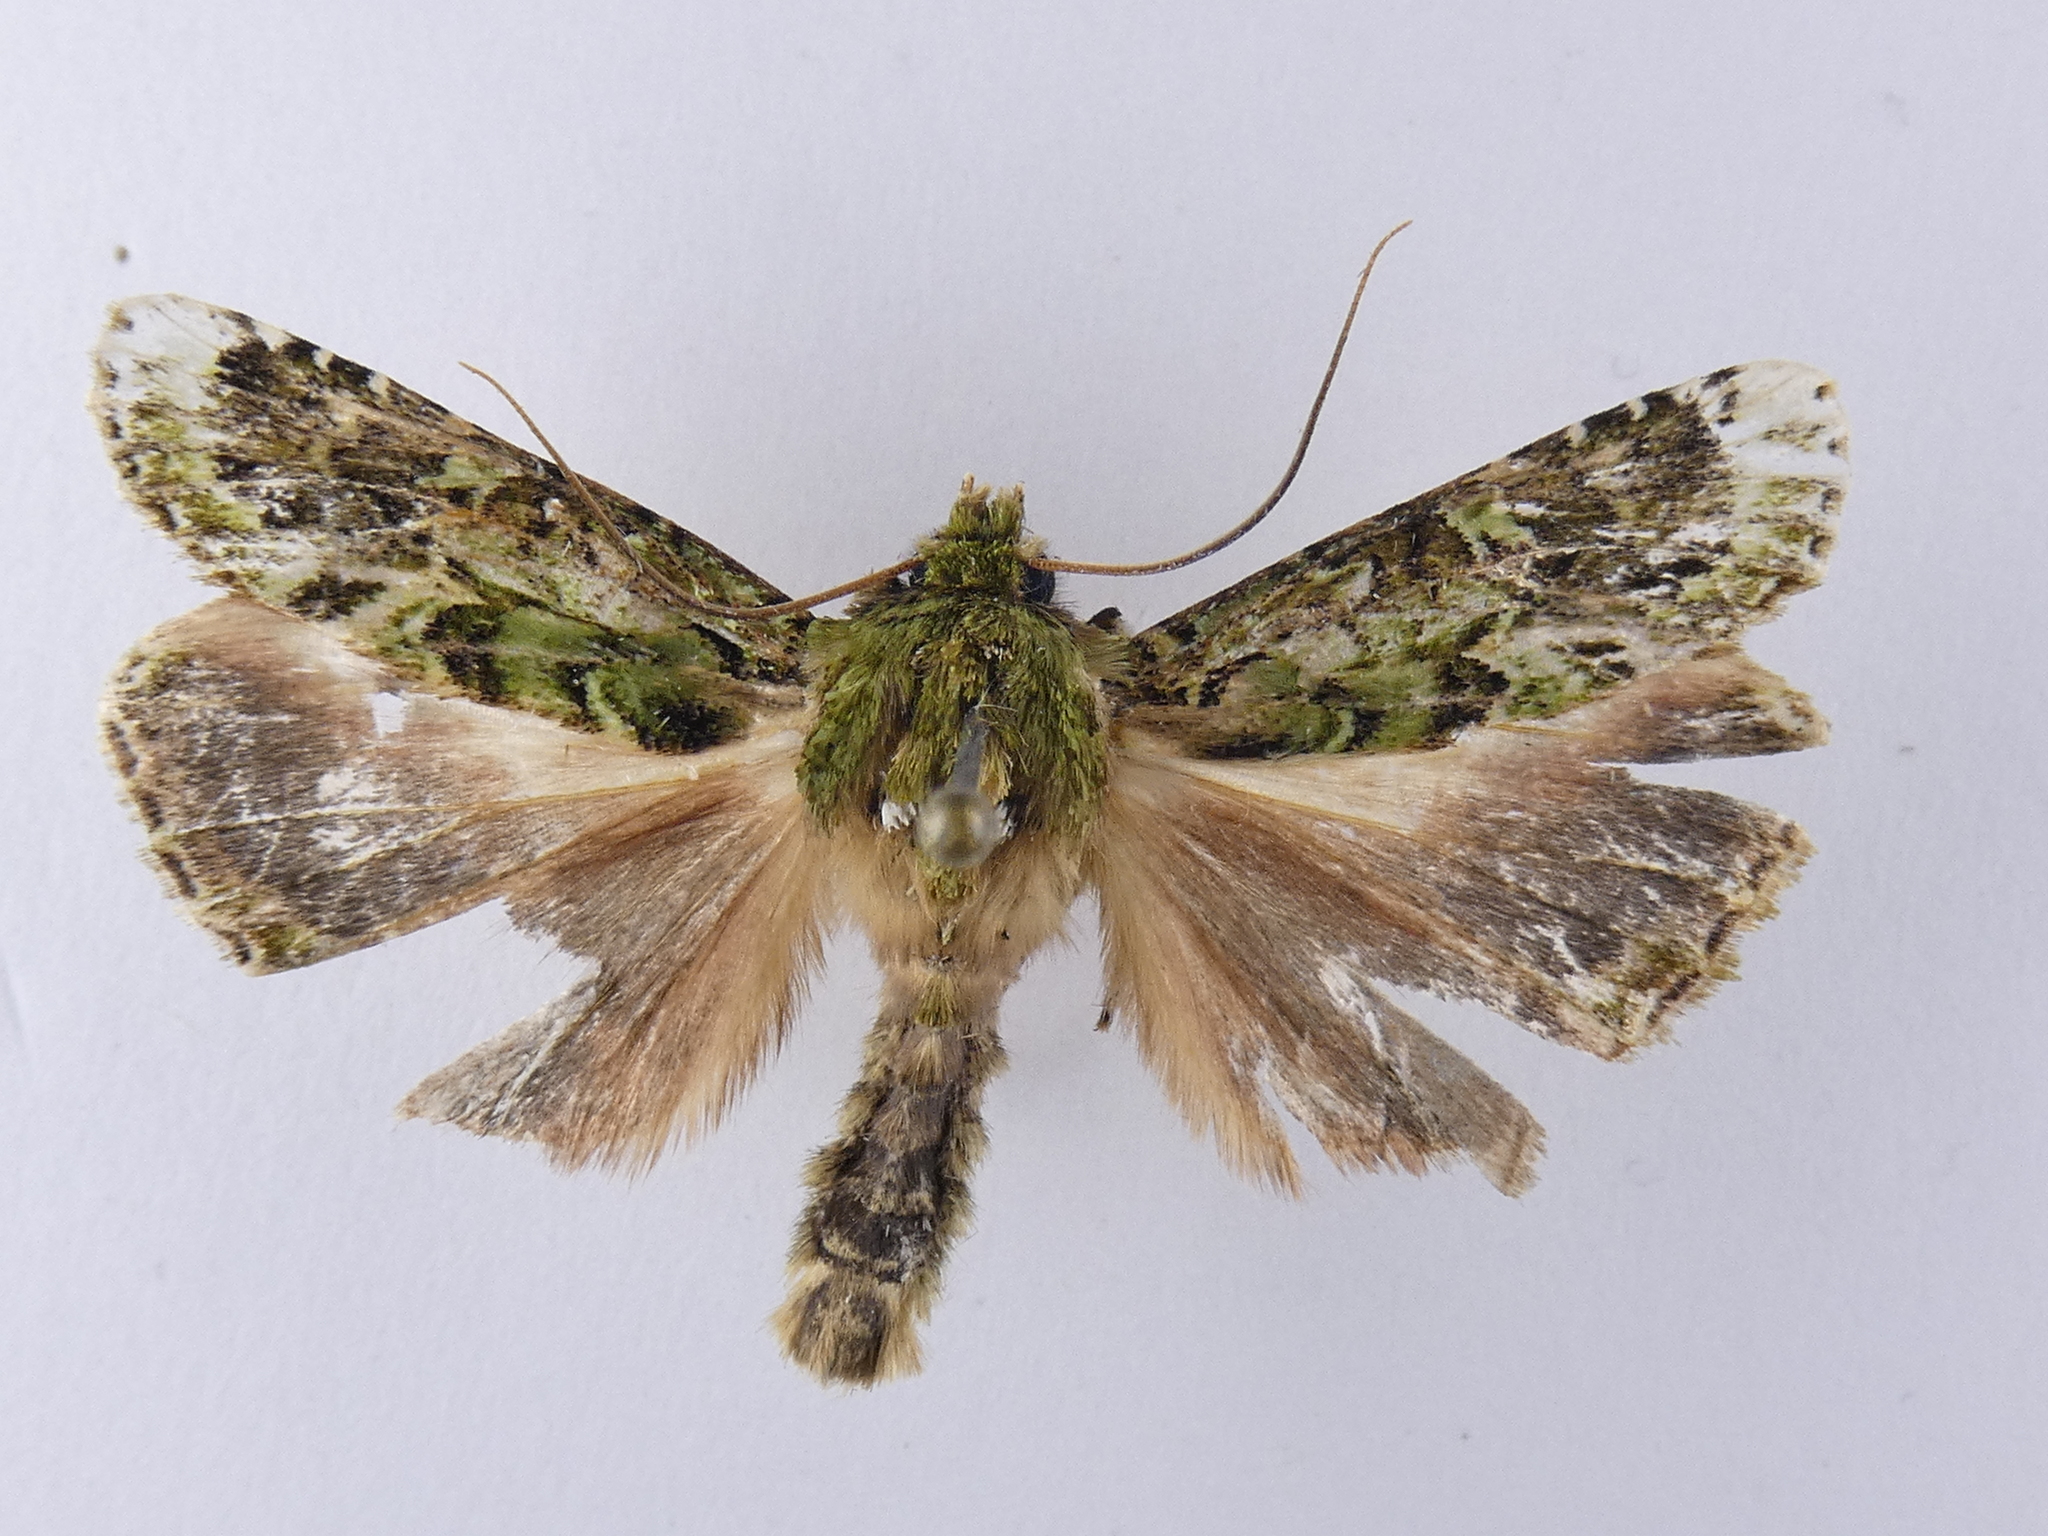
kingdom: Animalia
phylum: Arthropoda
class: Insecta
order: Lepidoptera
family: Noctuidae
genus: Feredayia
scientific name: Feredayia grammosa
